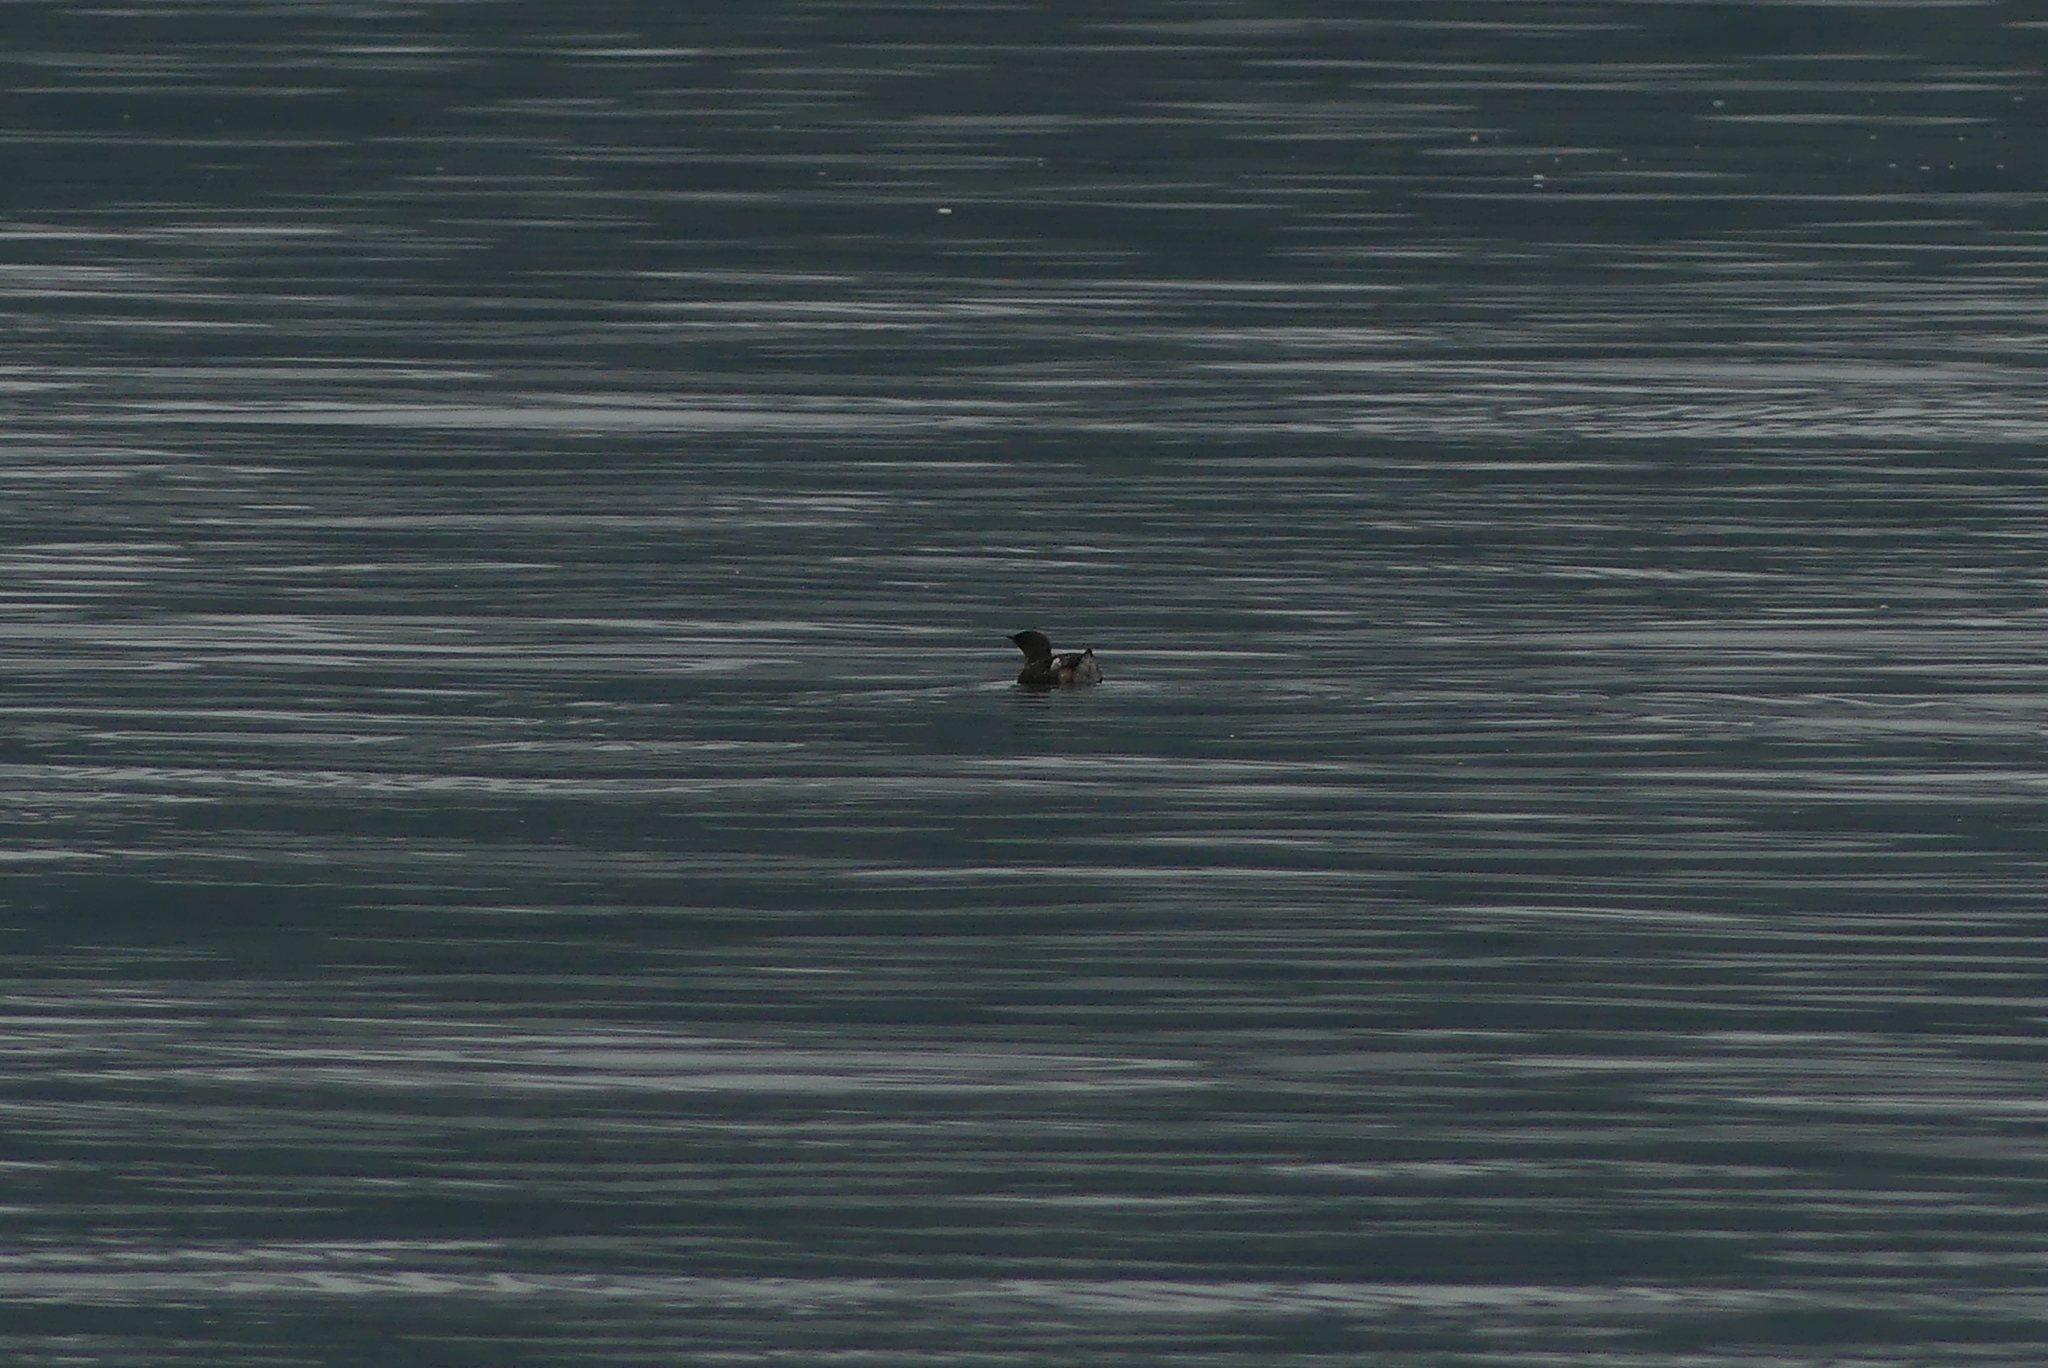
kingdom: Animalia
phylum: Chordata
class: Aves
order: Charadriiformes
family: Alcidae
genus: Brachyramphus
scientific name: Brachyramphus marmoratus
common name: Marbled murrelet
